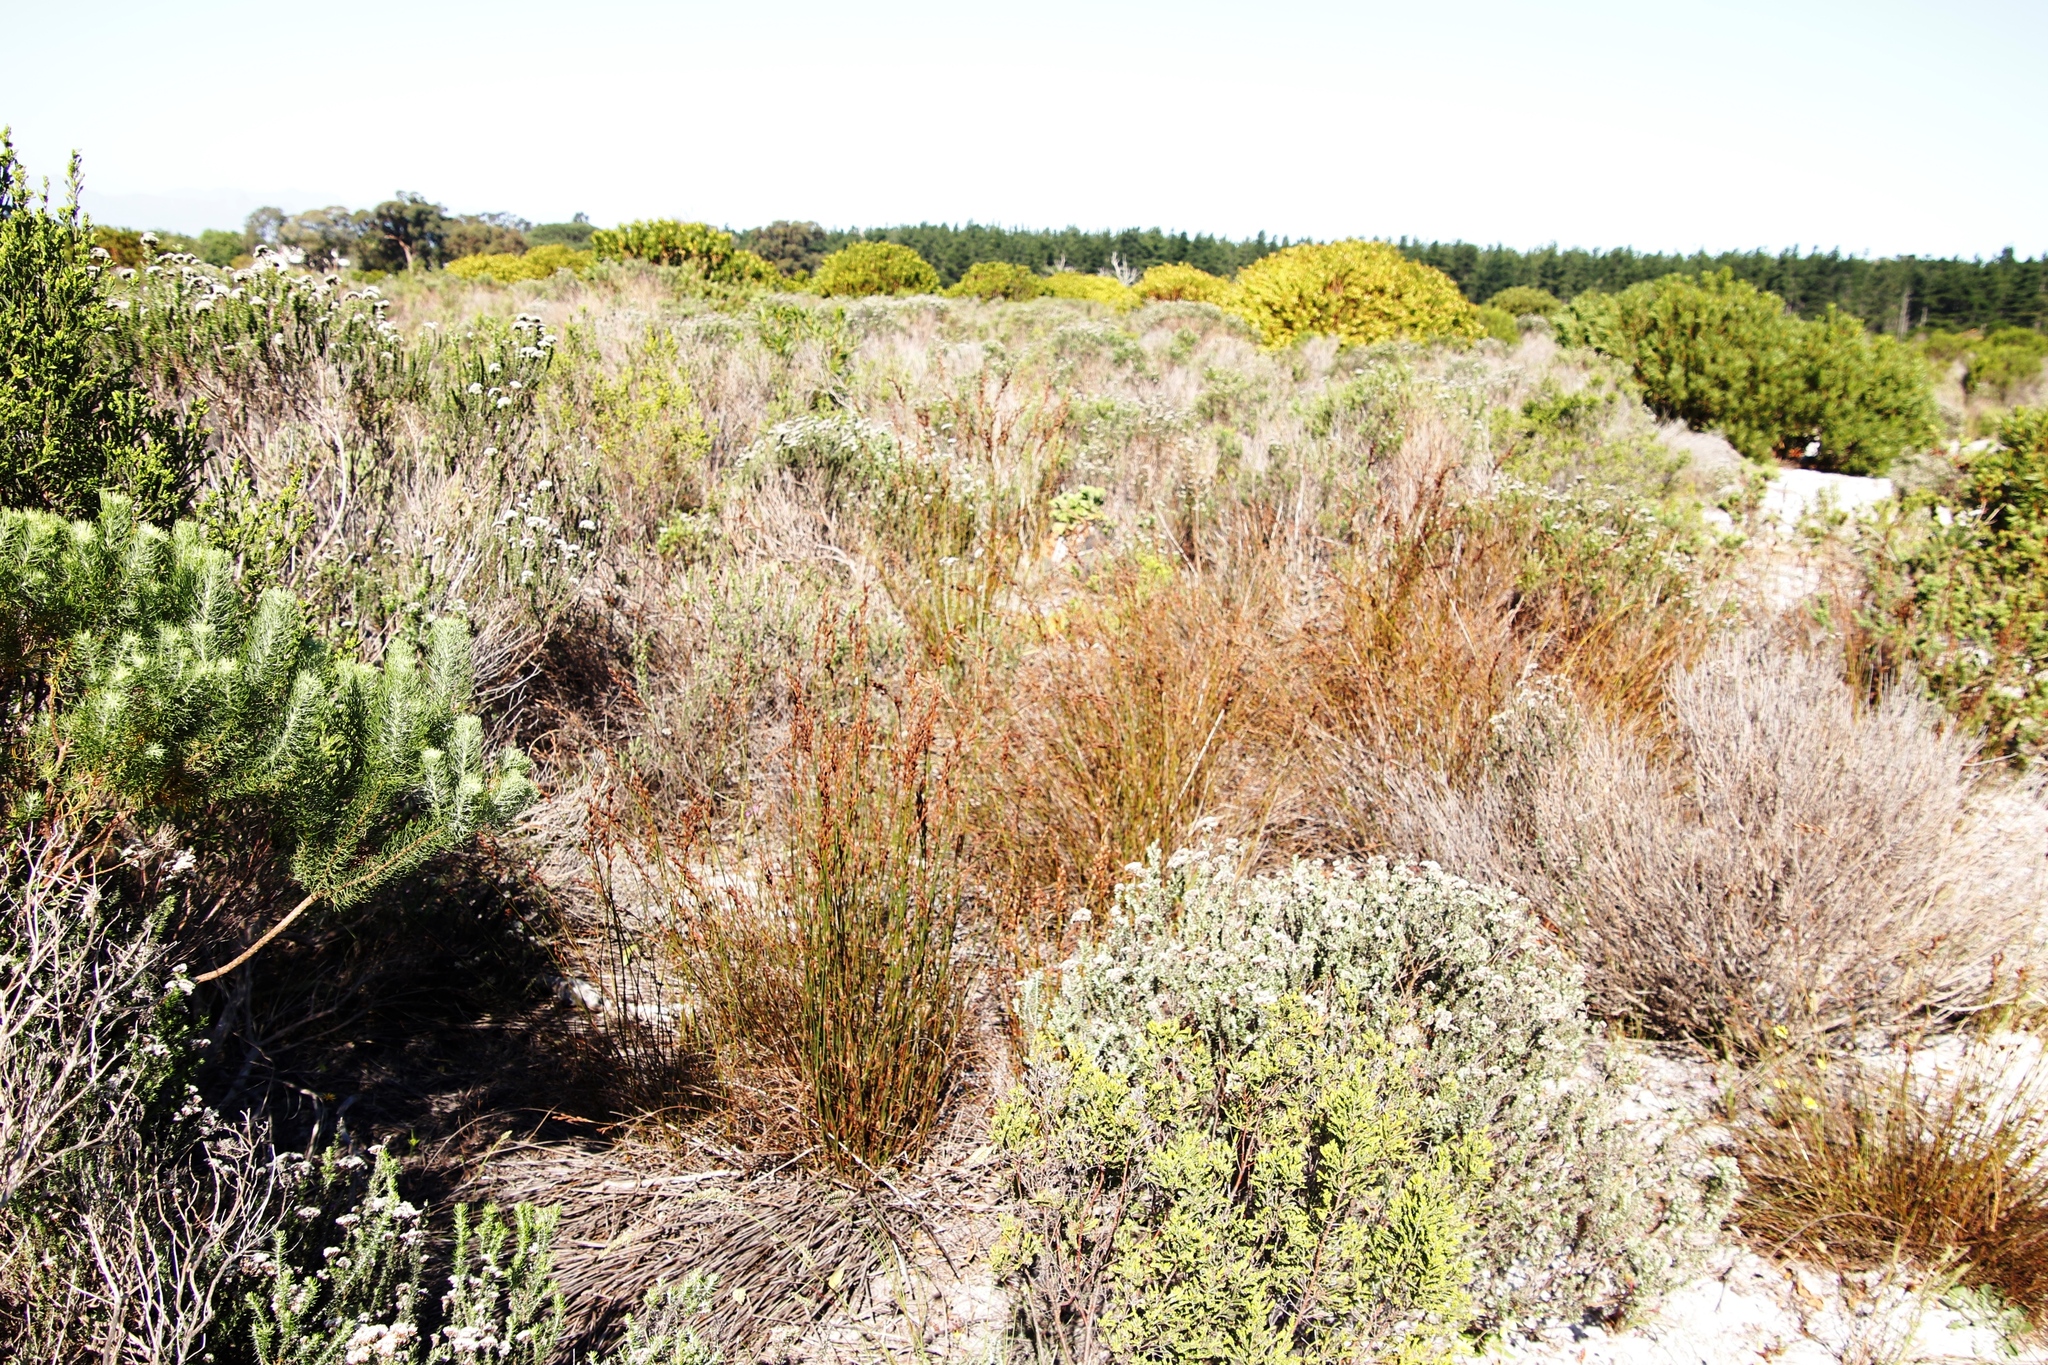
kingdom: Plantae
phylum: Tracheophyta
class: Liliopsida
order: Poales
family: Restionaceae
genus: Restio
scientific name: Restio bifurcus
